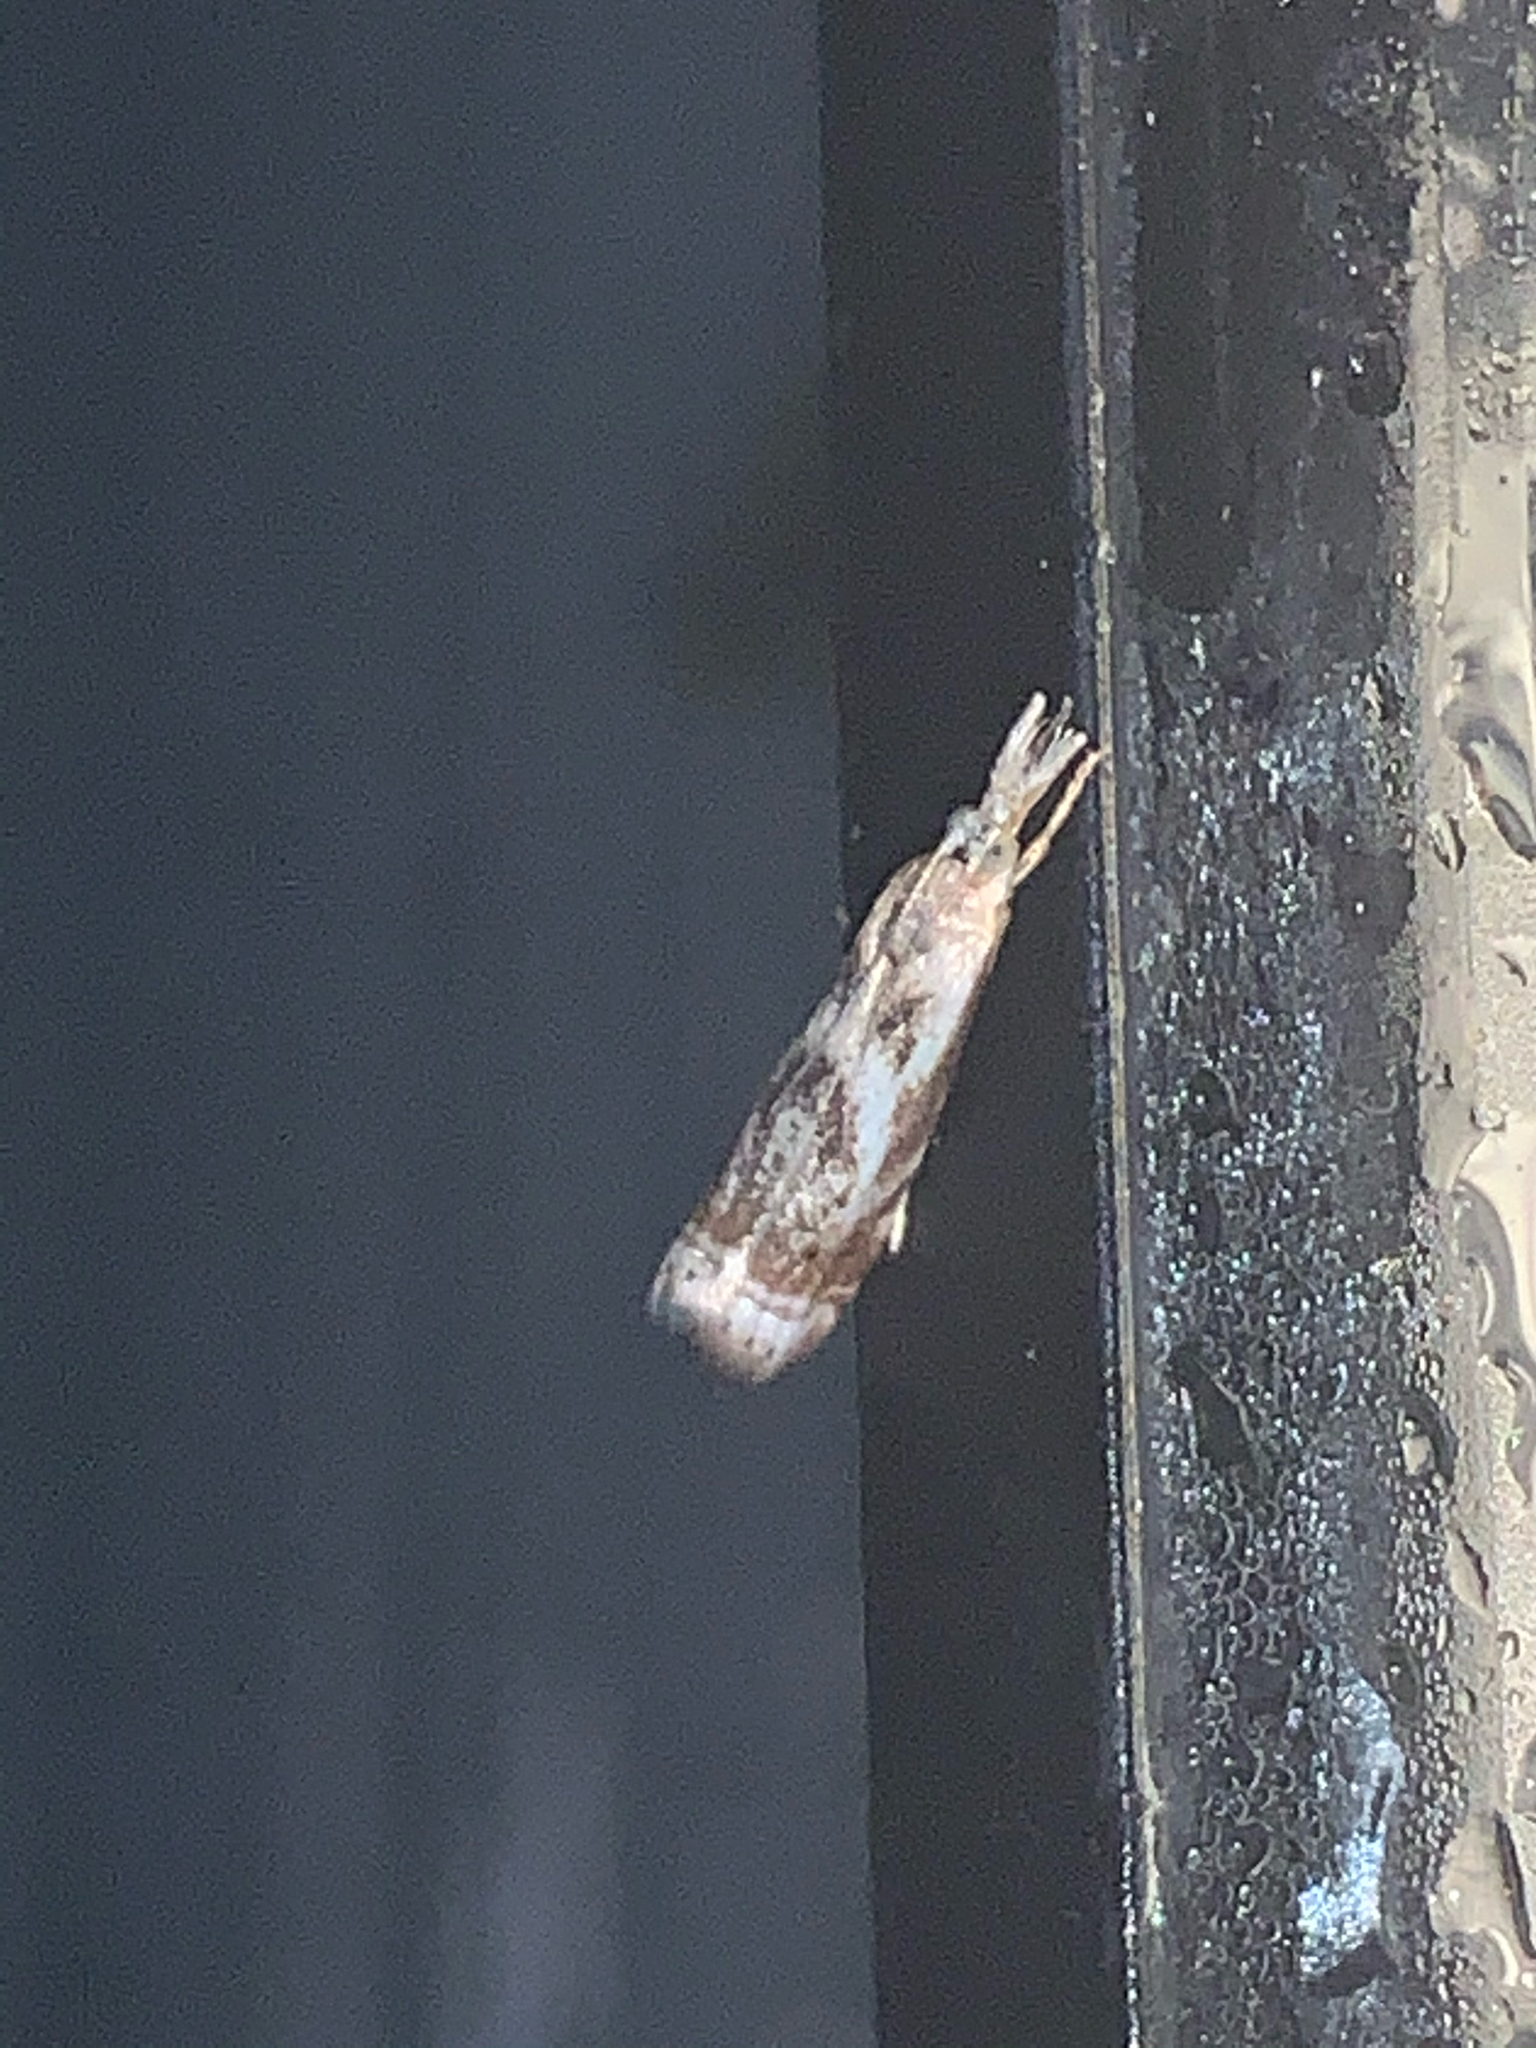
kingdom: Animalia
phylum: Arthropoda
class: Insecta
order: Lepidoptera
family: Crambidae
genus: Microcrambus
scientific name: Microcrambus elegans
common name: Elegant grass-veneer
